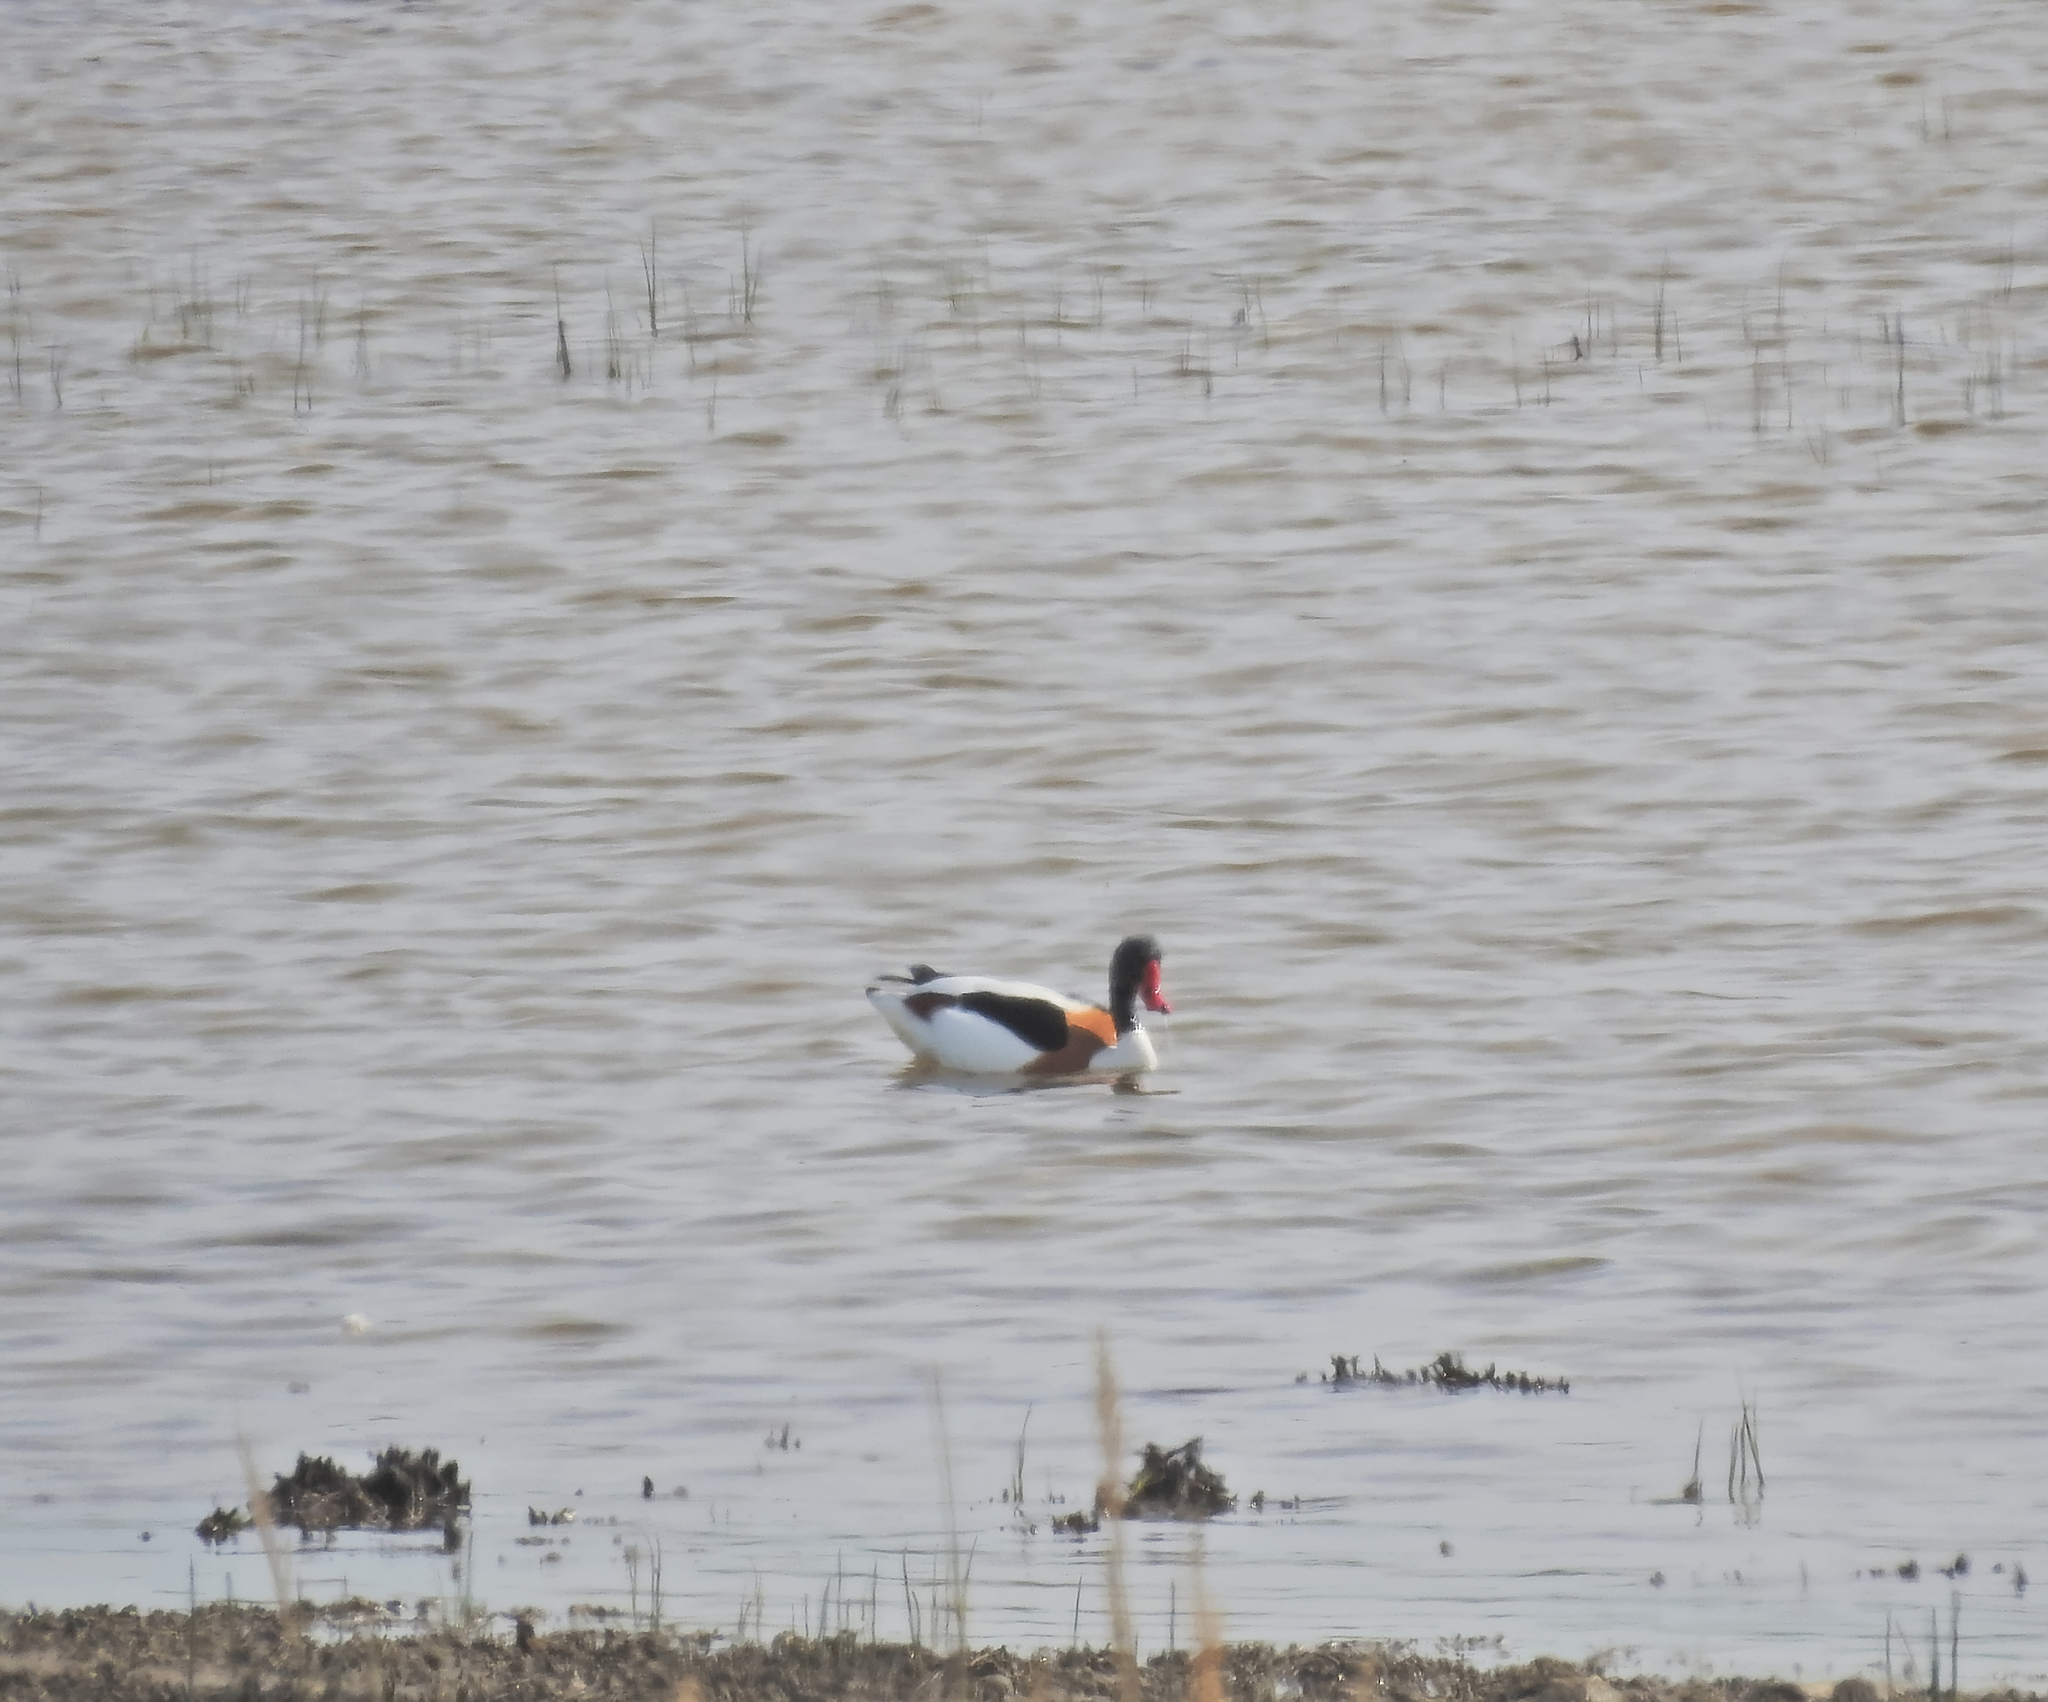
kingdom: Animalia
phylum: Chordata
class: Aves
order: Anseriformes
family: Anatidae
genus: Tadorna
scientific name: Tadorna tadorna
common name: Common shelduck
